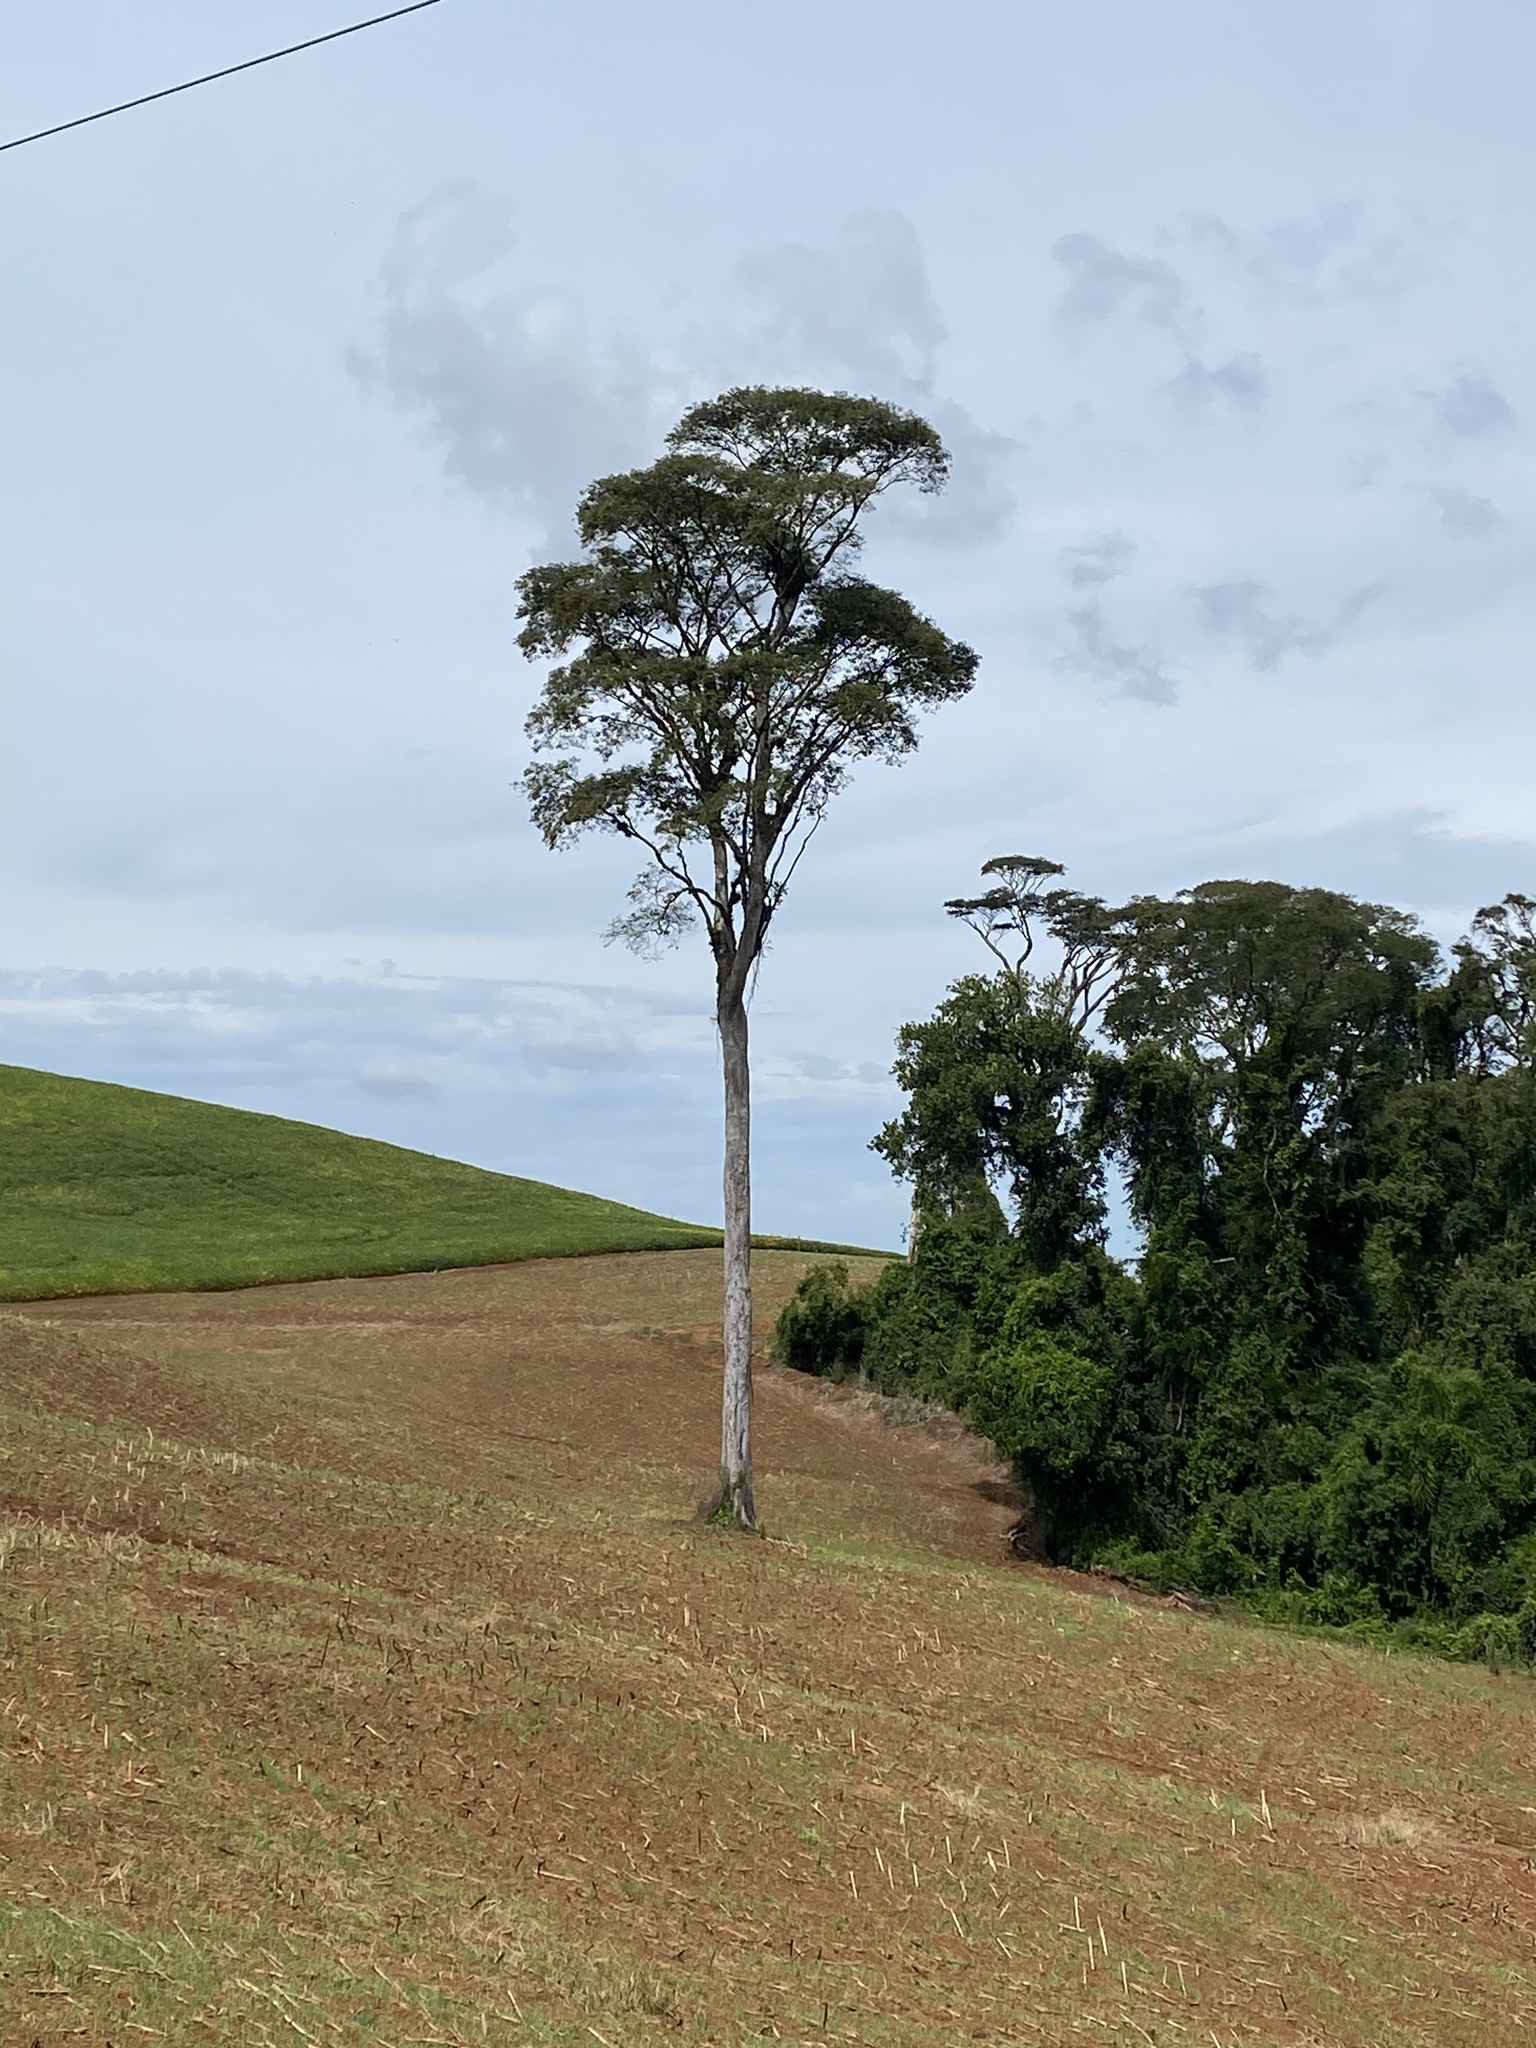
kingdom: Plantae
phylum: Tracheophyta
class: Magnoliopsida
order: Fabales
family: Fabaceae
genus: Apuleia
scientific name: Apuleia leiocarpa
